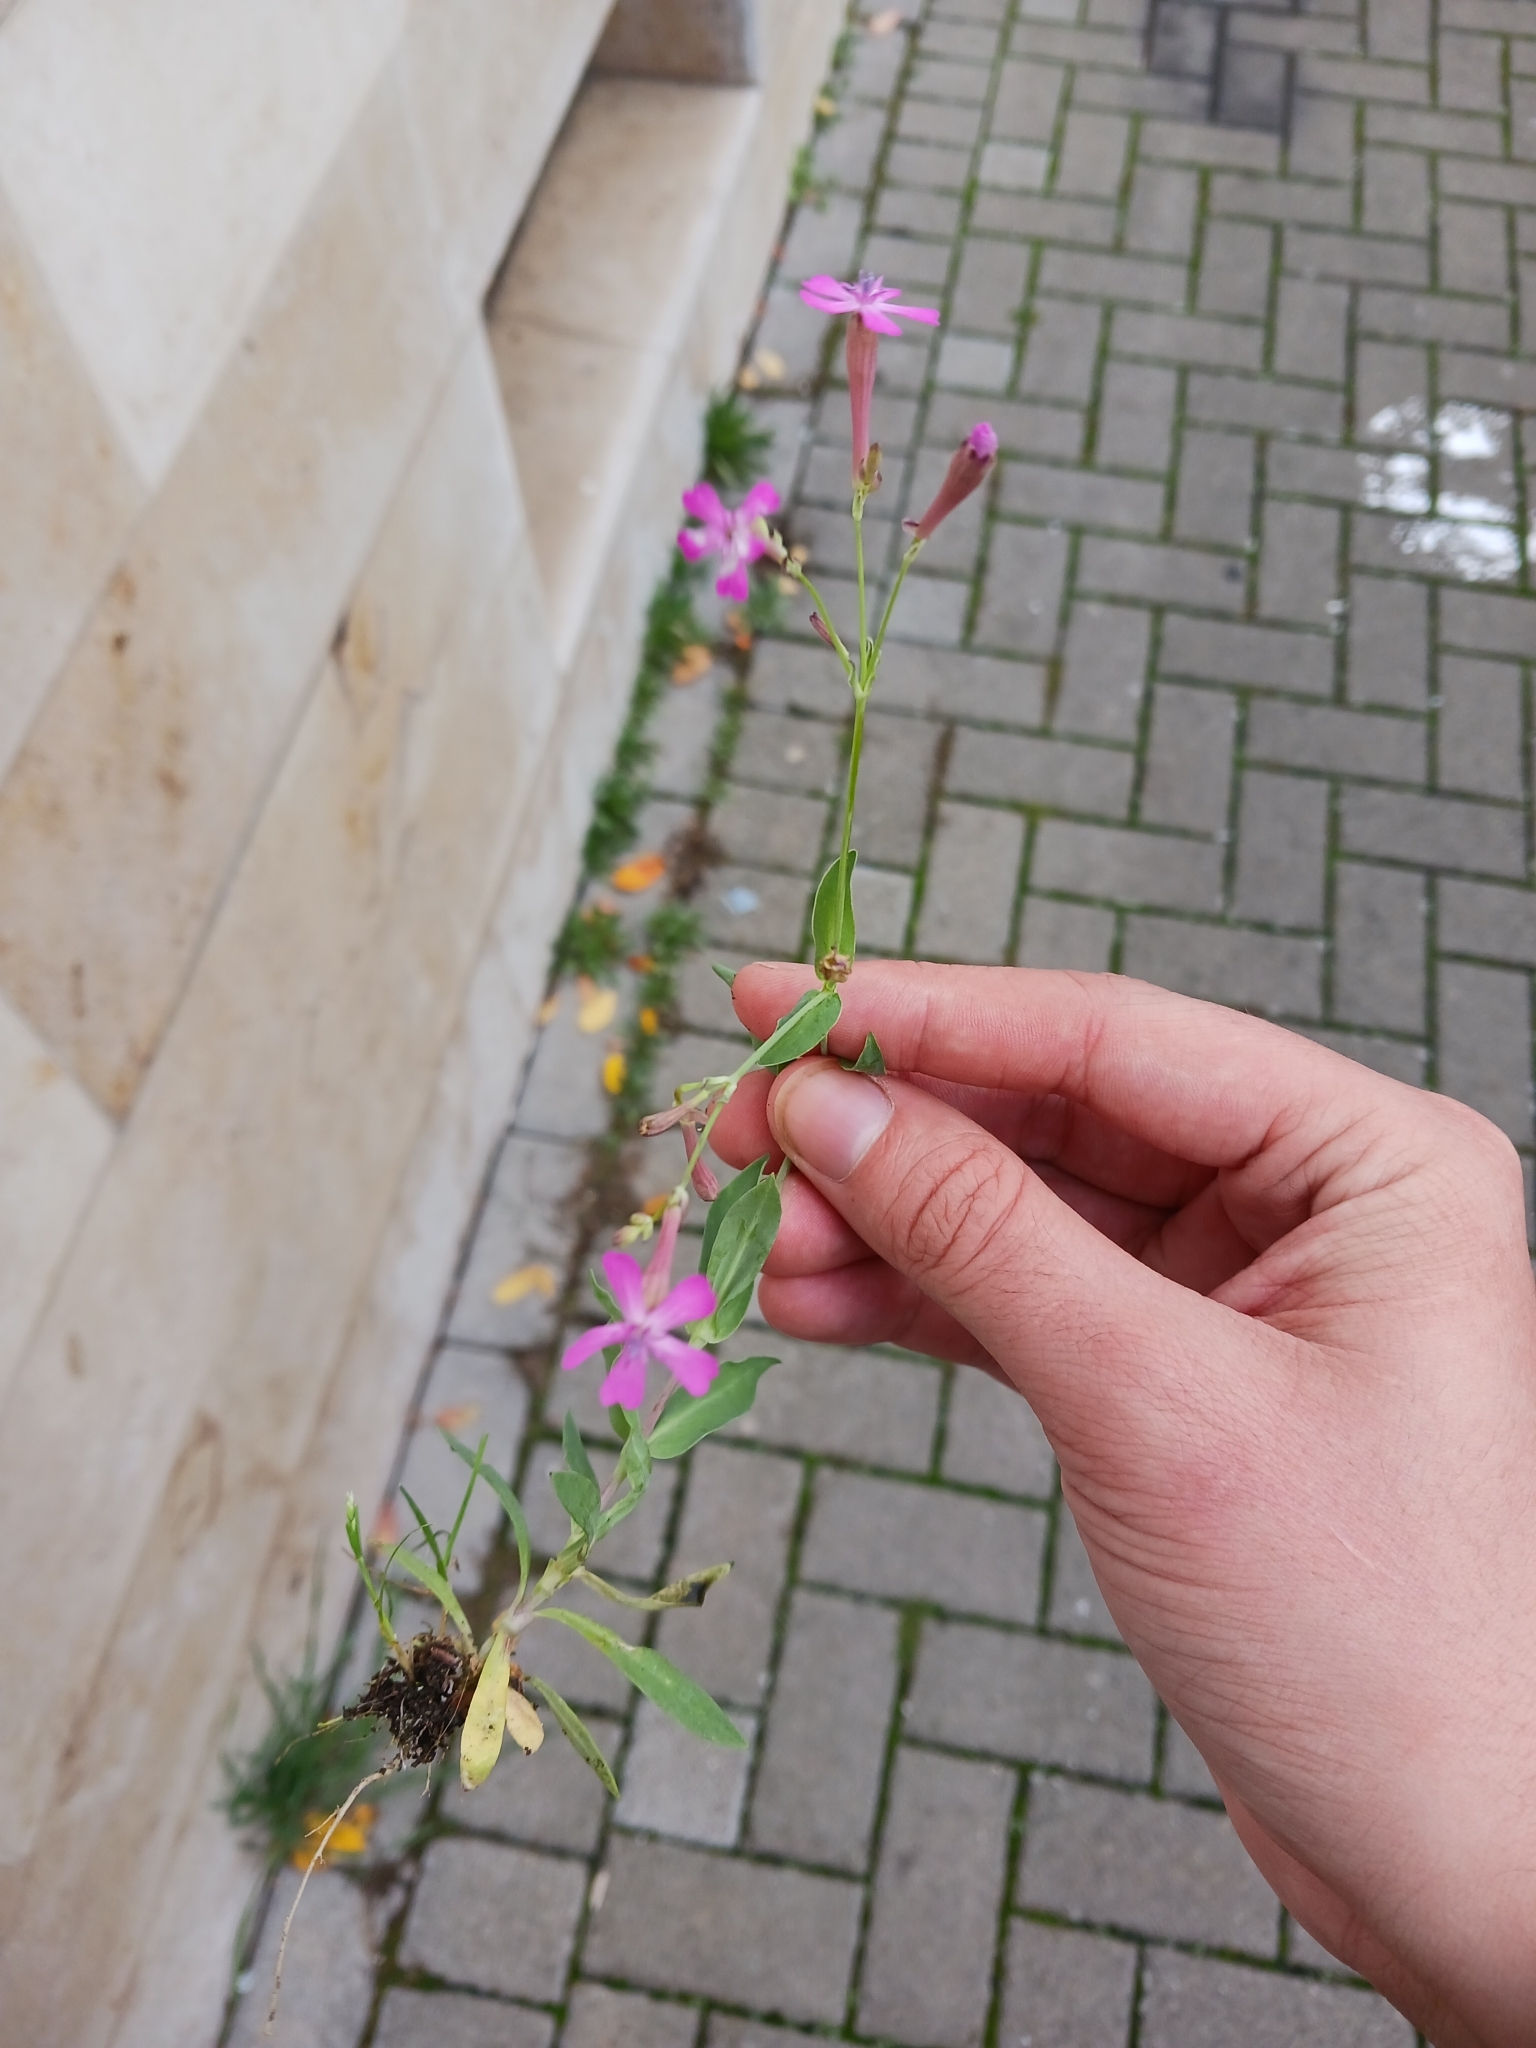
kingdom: Plantae
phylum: Tracheophyta
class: Magnoliopsida
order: Caryophyllales
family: Caryophyllaceae
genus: Atocion
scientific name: Atocion armeria
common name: Sweet william catchfly
